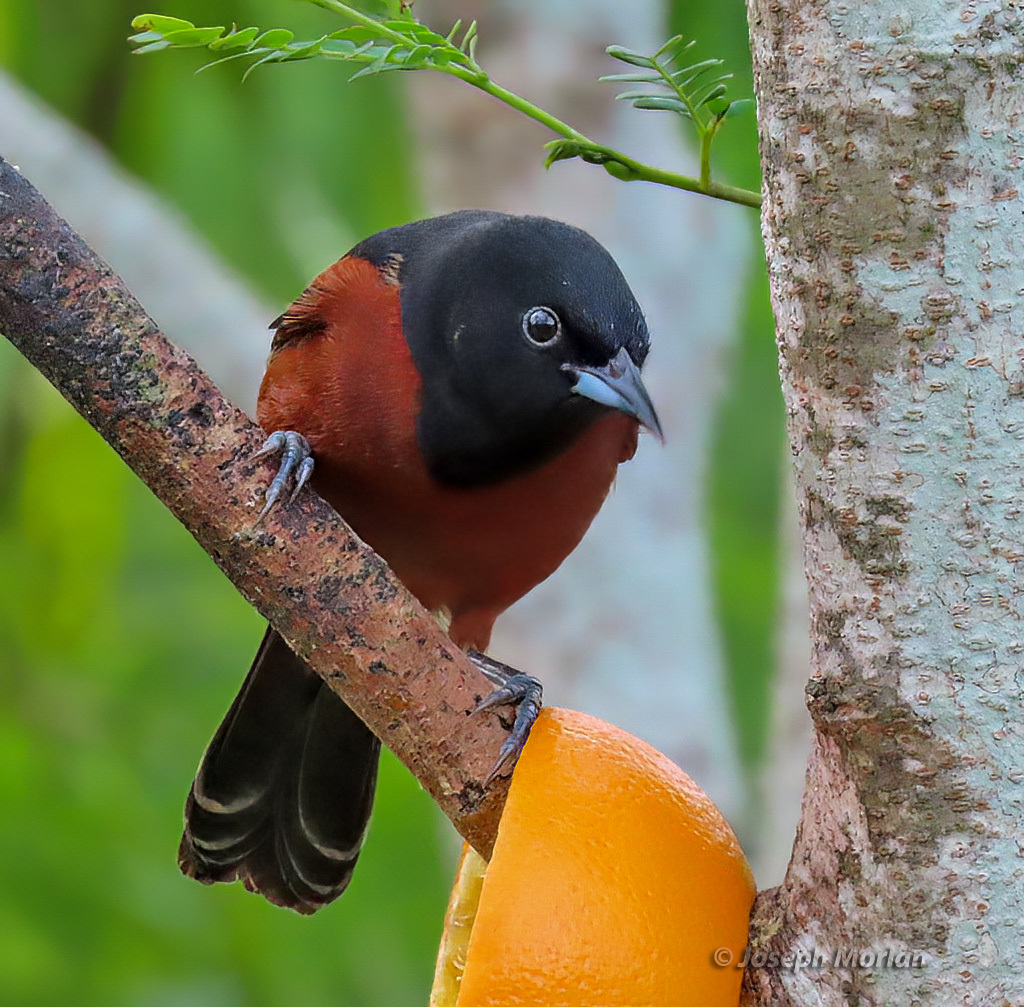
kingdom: Animalia
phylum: Chordata
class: Aves
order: Passeriformes
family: Icteridae
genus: Icterus
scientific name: Icterus spurius
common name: Orchard oriole
